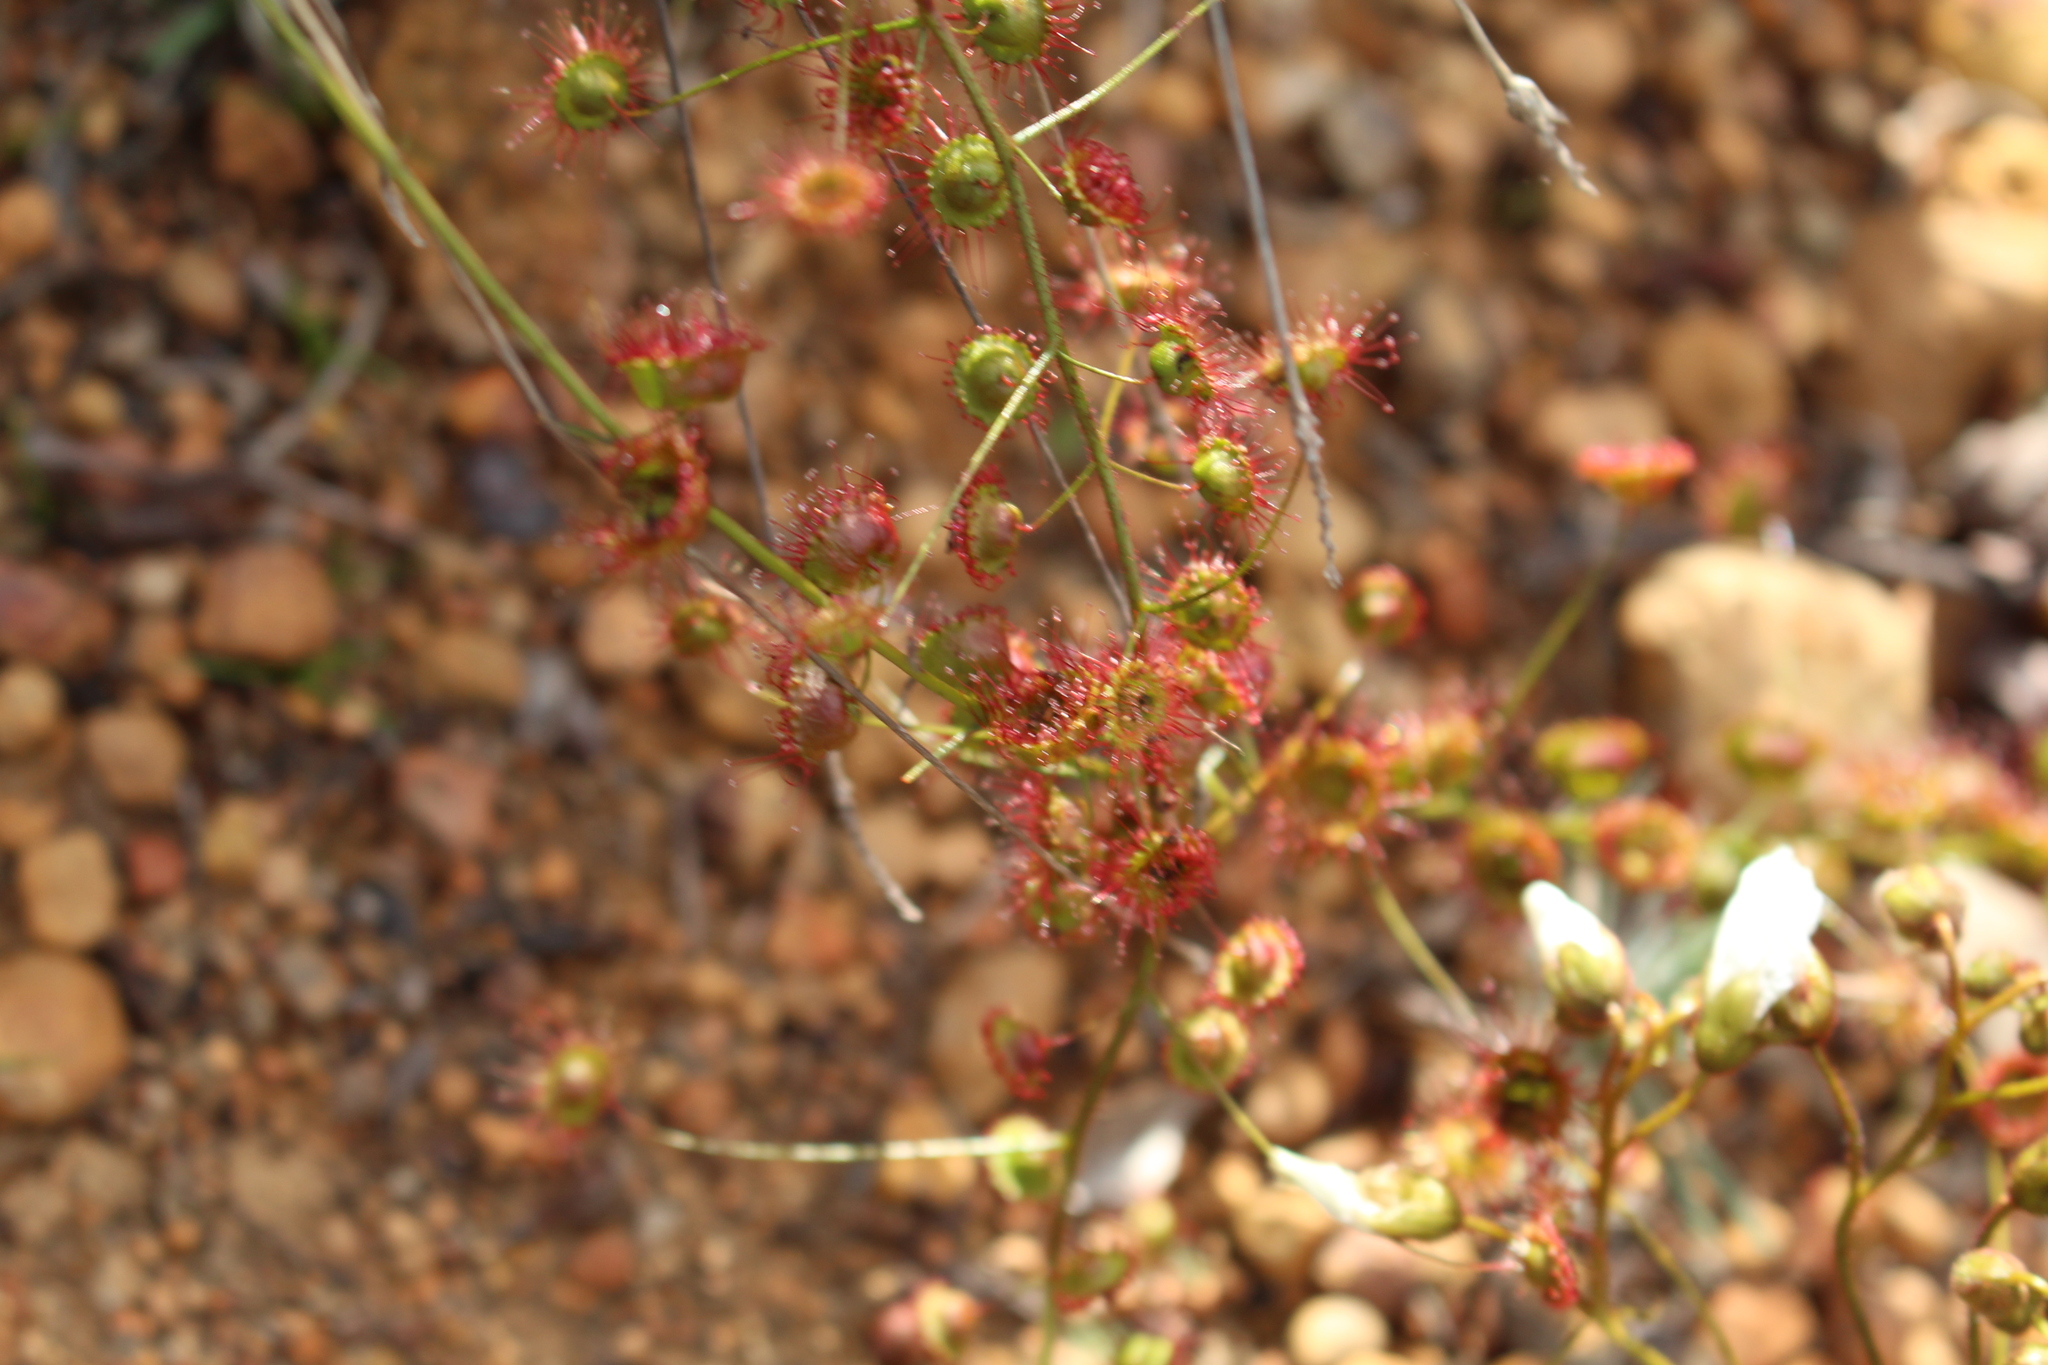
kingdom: Plantae
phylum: Tracheophyta
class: Magnoliopsida
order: Caryophyllales
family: Droseraceae
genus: Drosera
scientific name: Drosera macrantha
